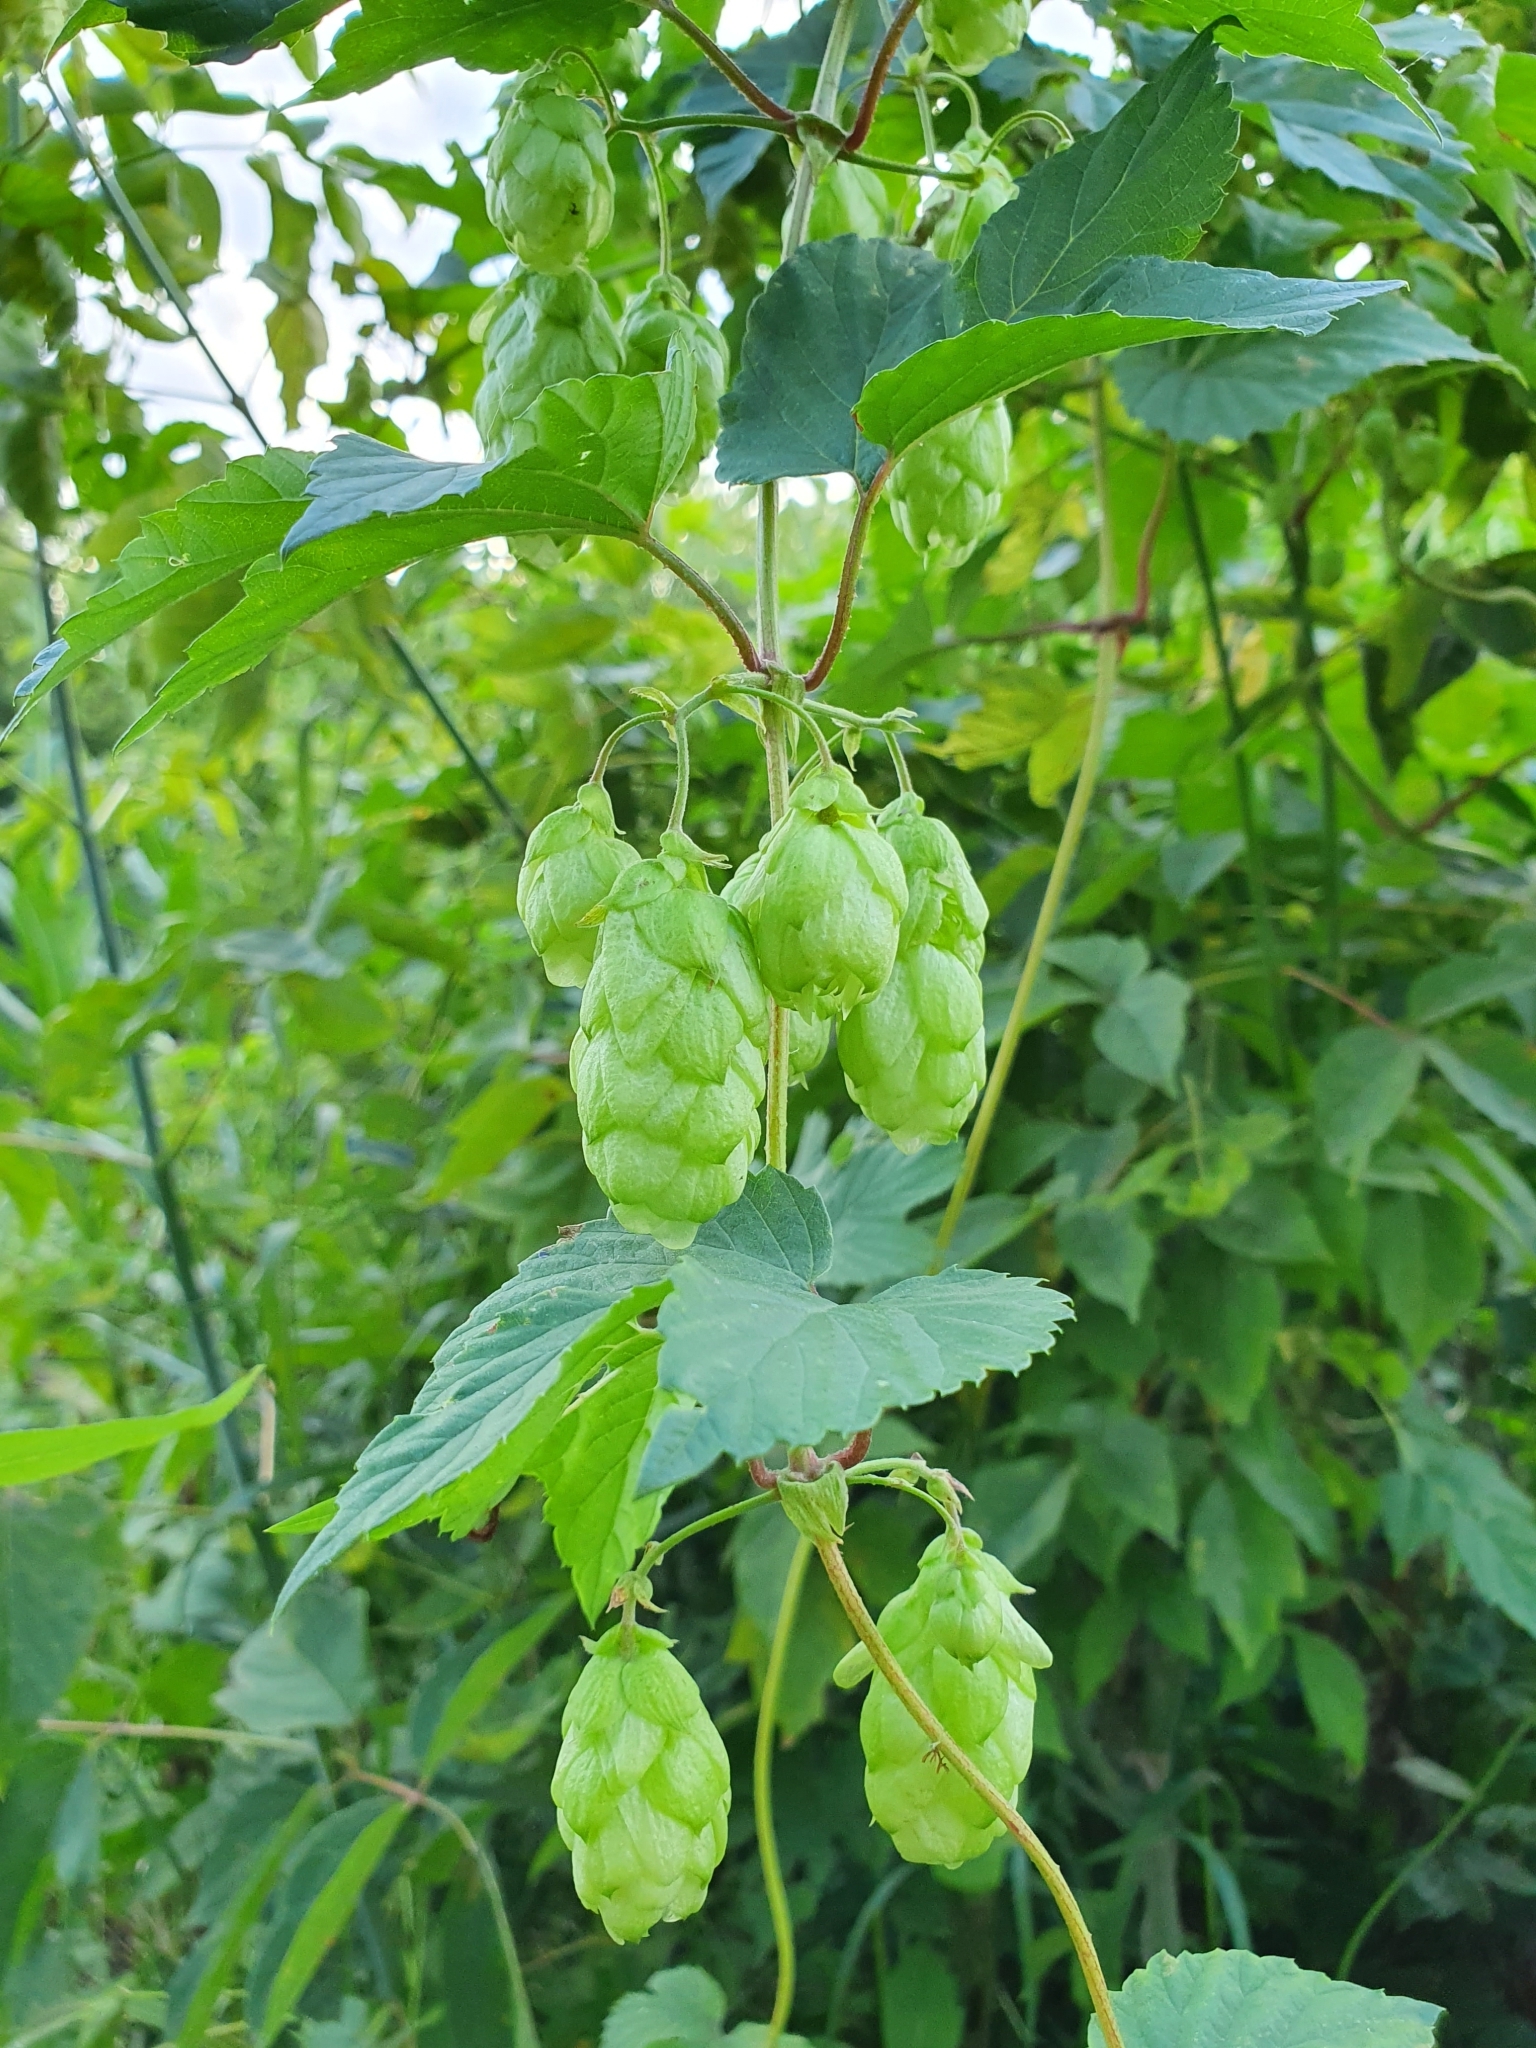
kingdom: Plantae
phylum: Tracheophyta
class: Magnoliopsida
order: Rosales
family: Cannabaceae
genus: Humulus
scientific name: Humulus lupulus
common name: Hop
